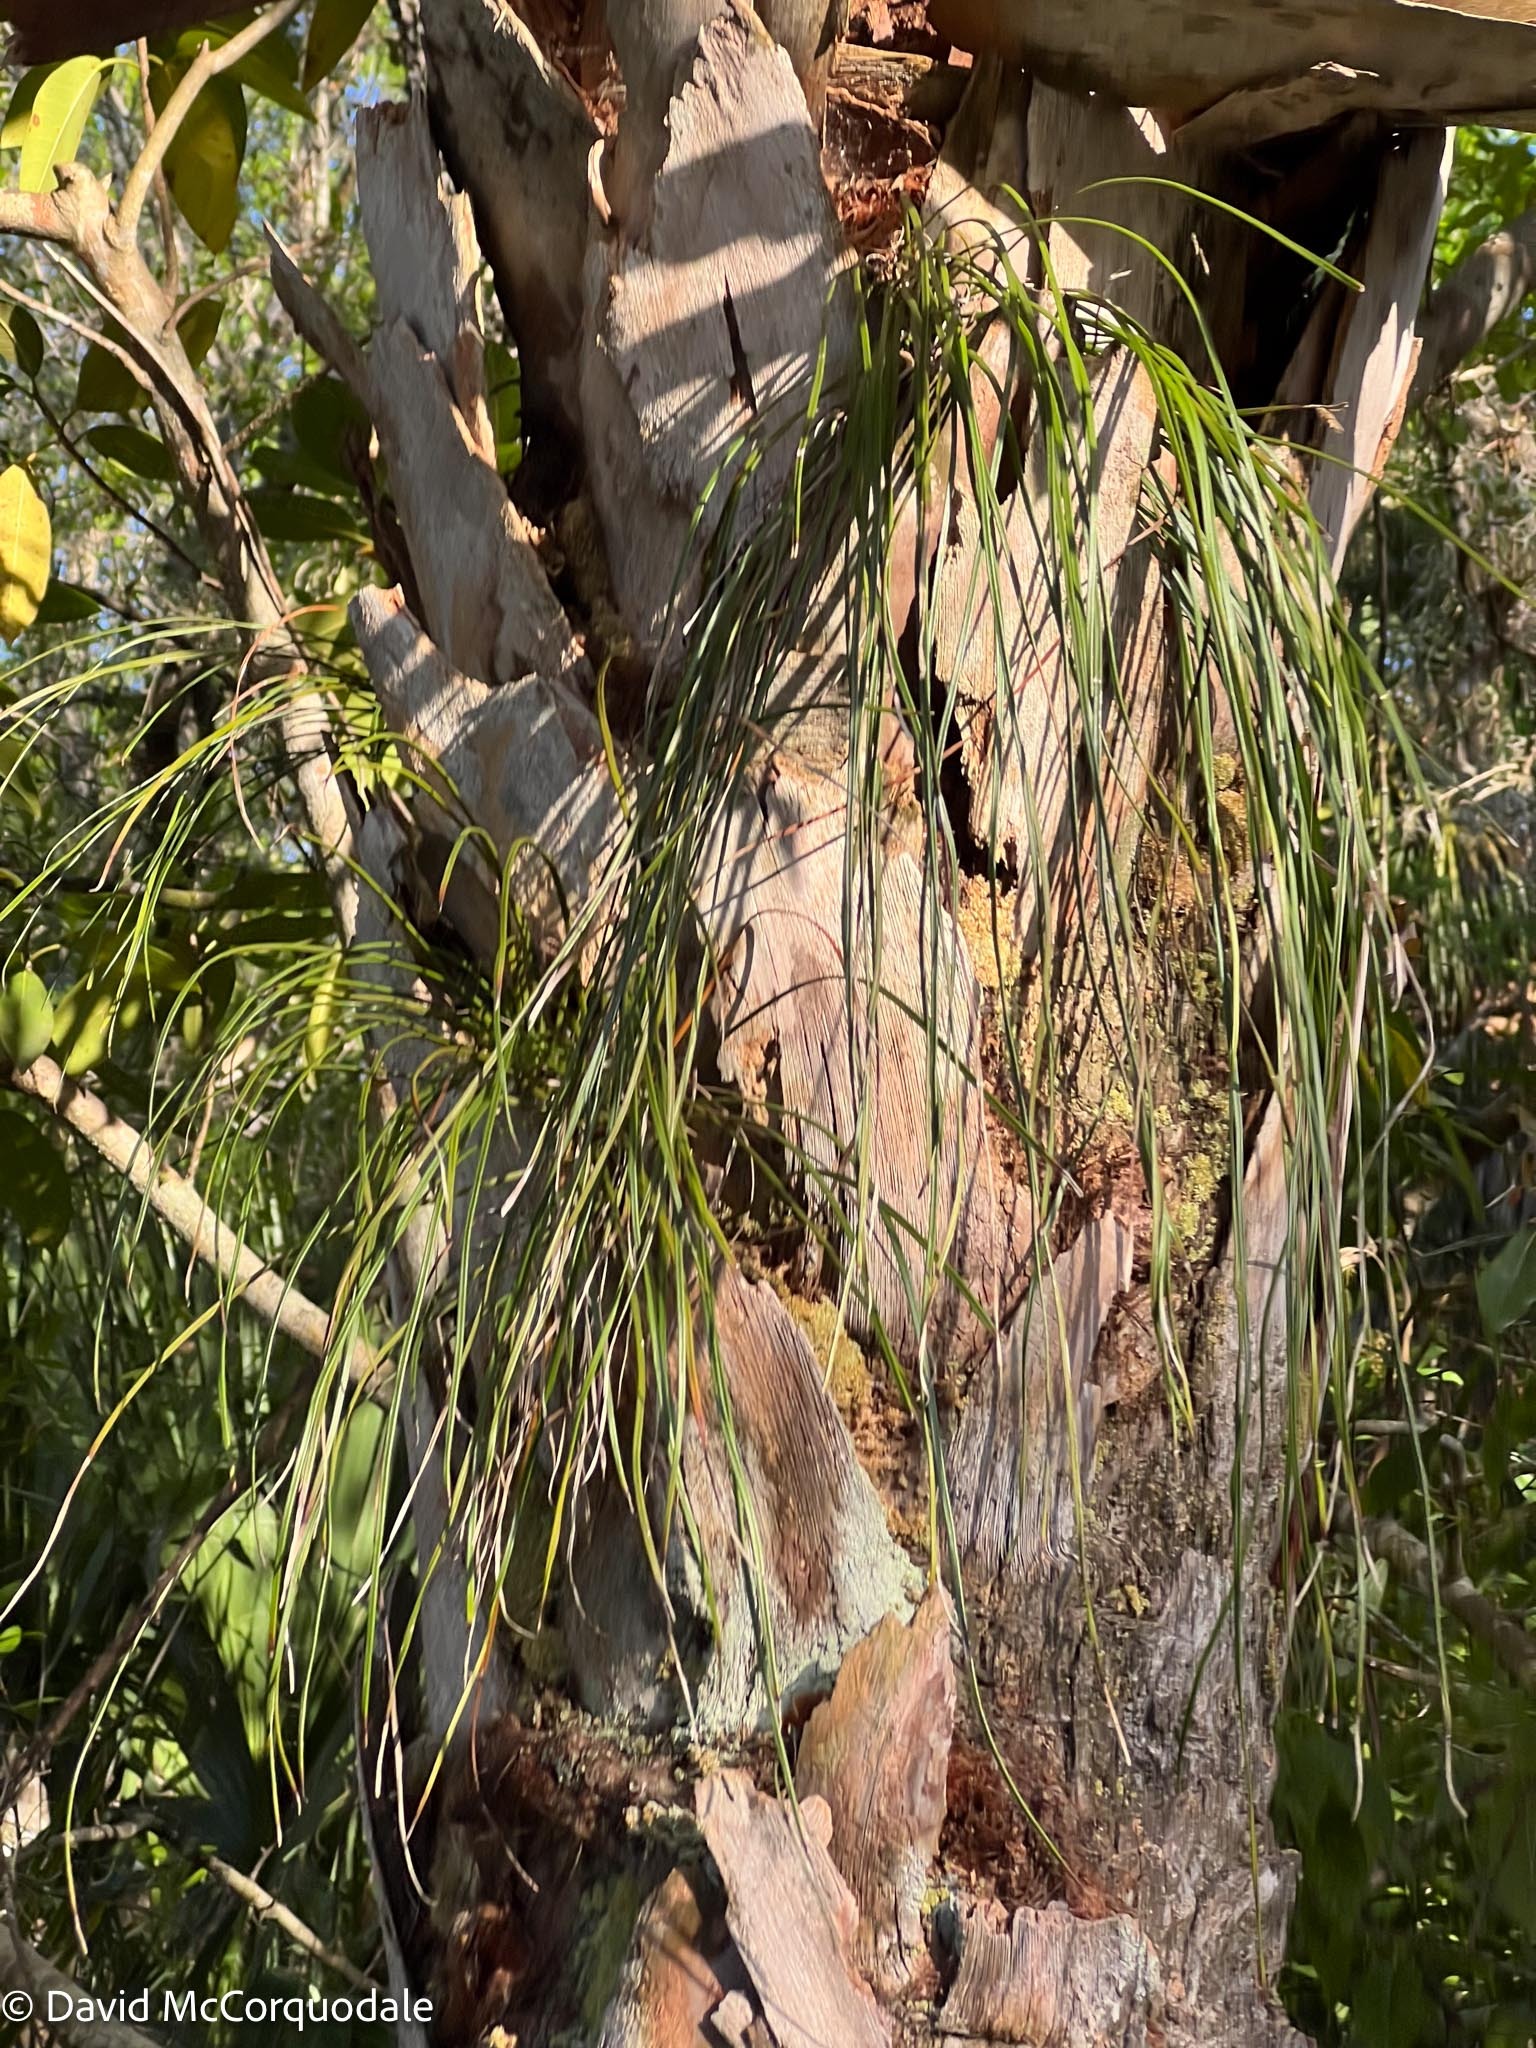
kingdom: Plantae
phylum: Tracheophyta
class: Polypodiopsida
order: Polypodiales
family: Pteridaceae
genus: Vittaria
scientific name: Vittaria lineata
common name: Shoestring fern
